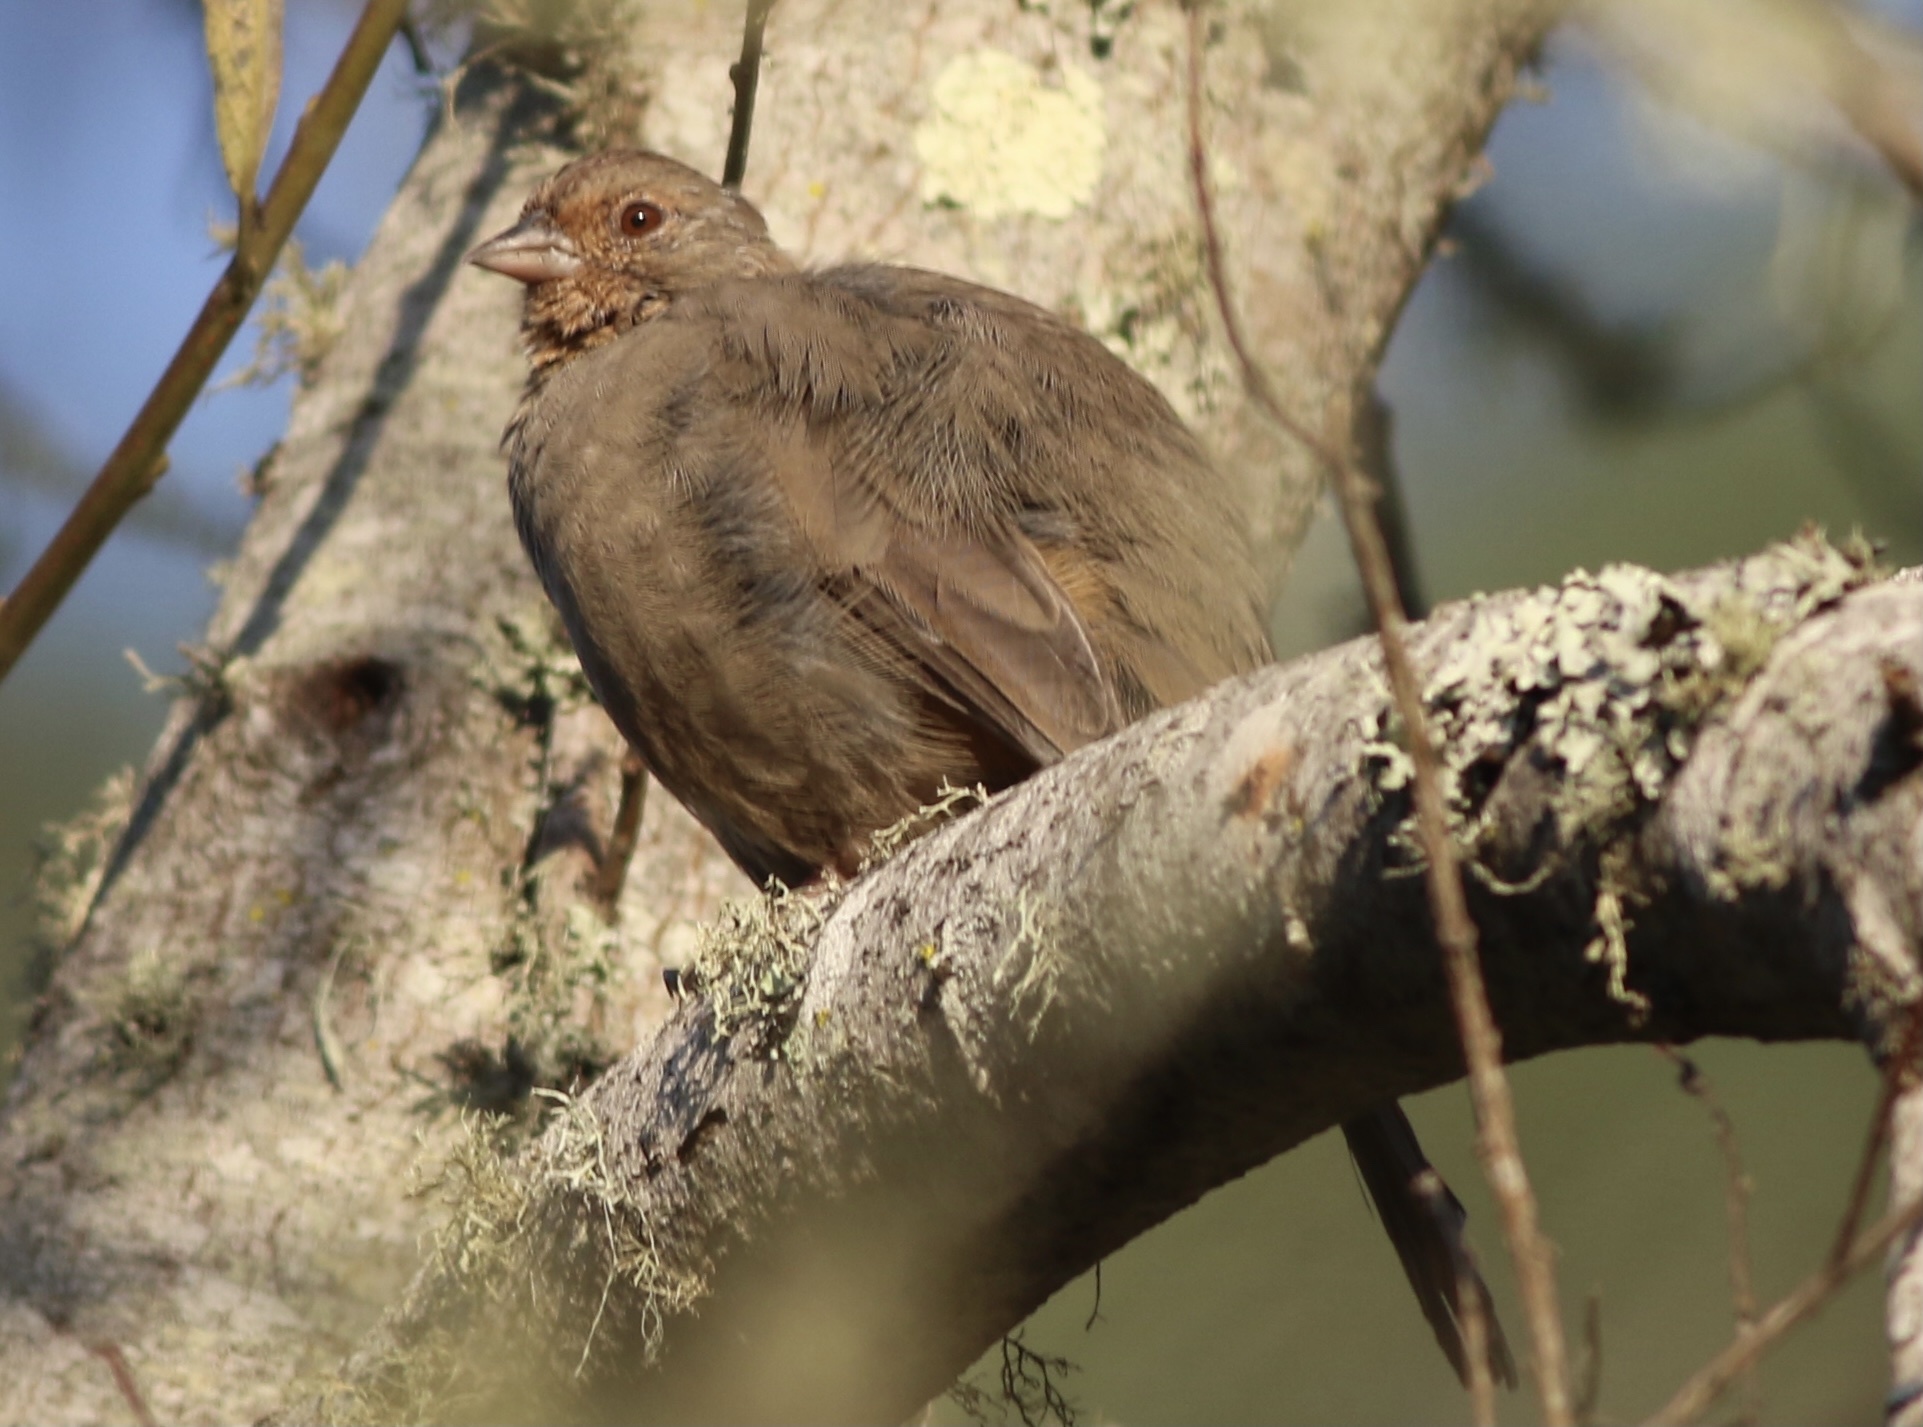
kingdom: Animalia
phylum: Chordata
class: Aves
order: Passeriformes
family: Passerellidae
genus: Melozone
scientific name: Melozone crissalis
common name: California towhee
